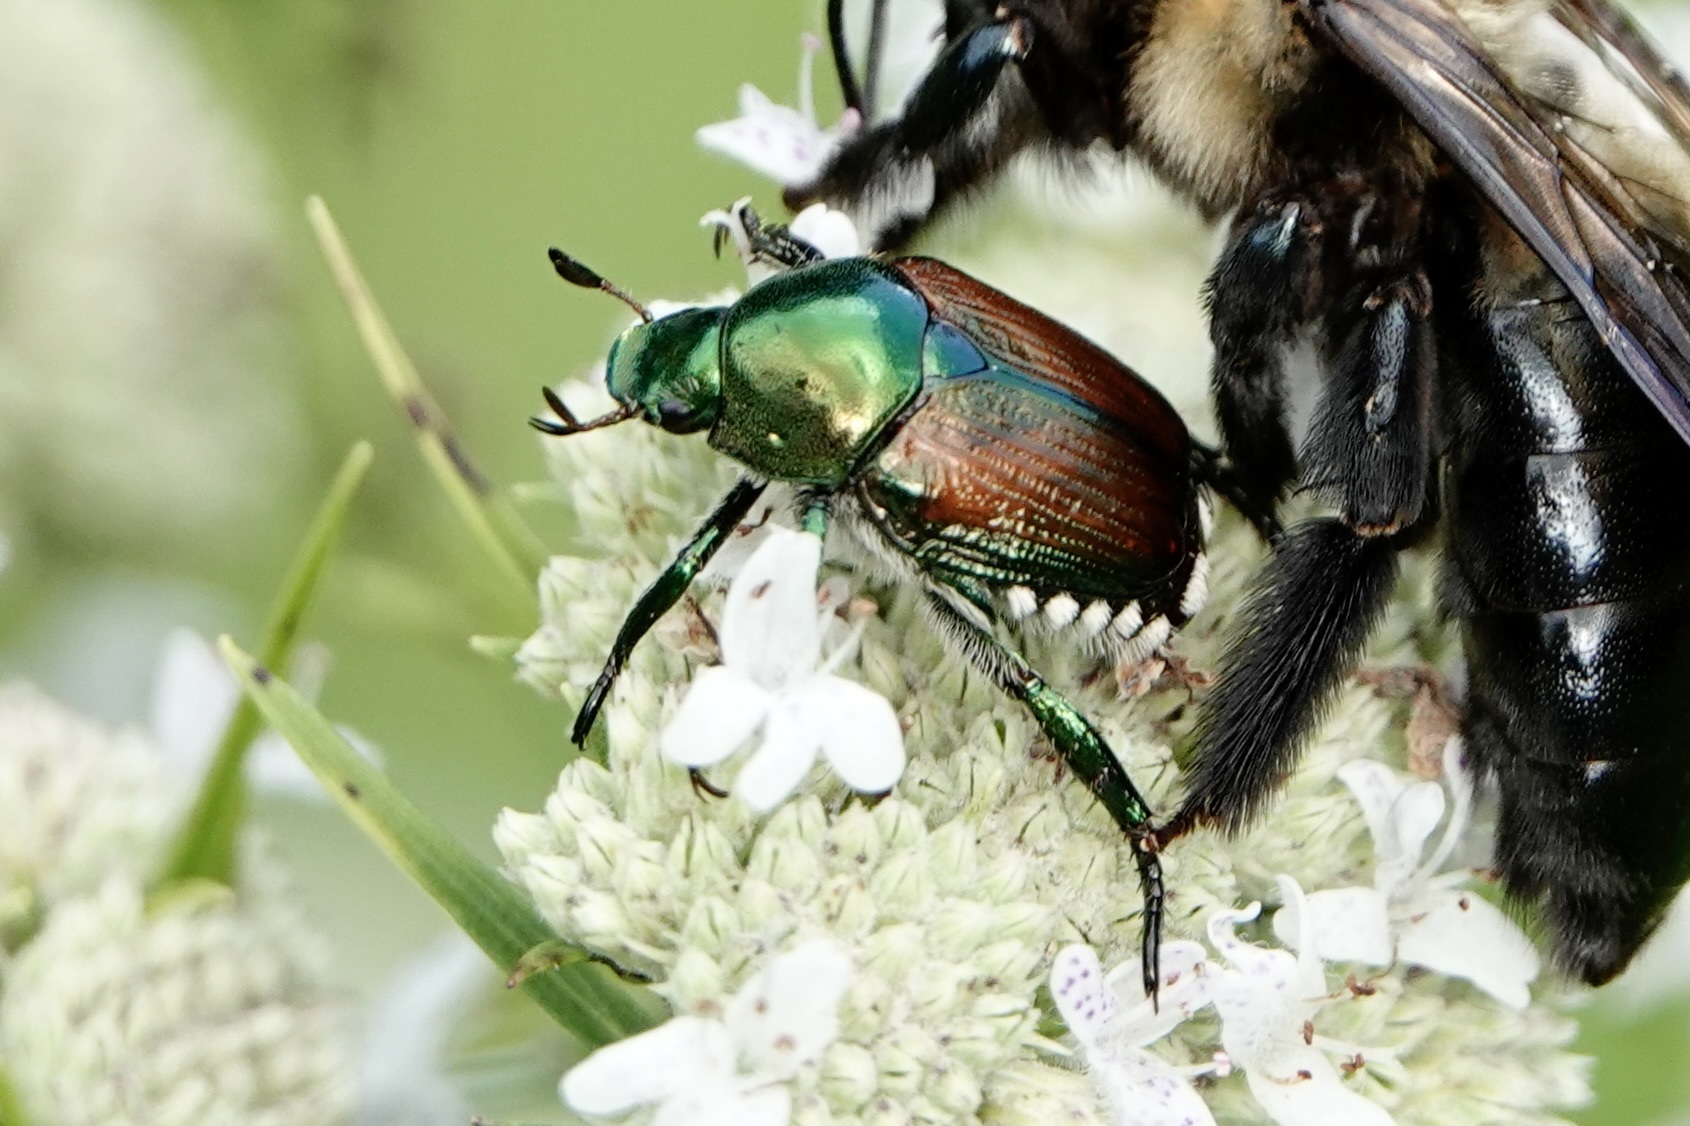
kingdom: Animalia
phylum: Arthropoda
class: Insecta
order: Coleoptera
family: Scarabaeidae
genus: Popillia
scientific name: Popillia japonica
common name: Japanese beetle
